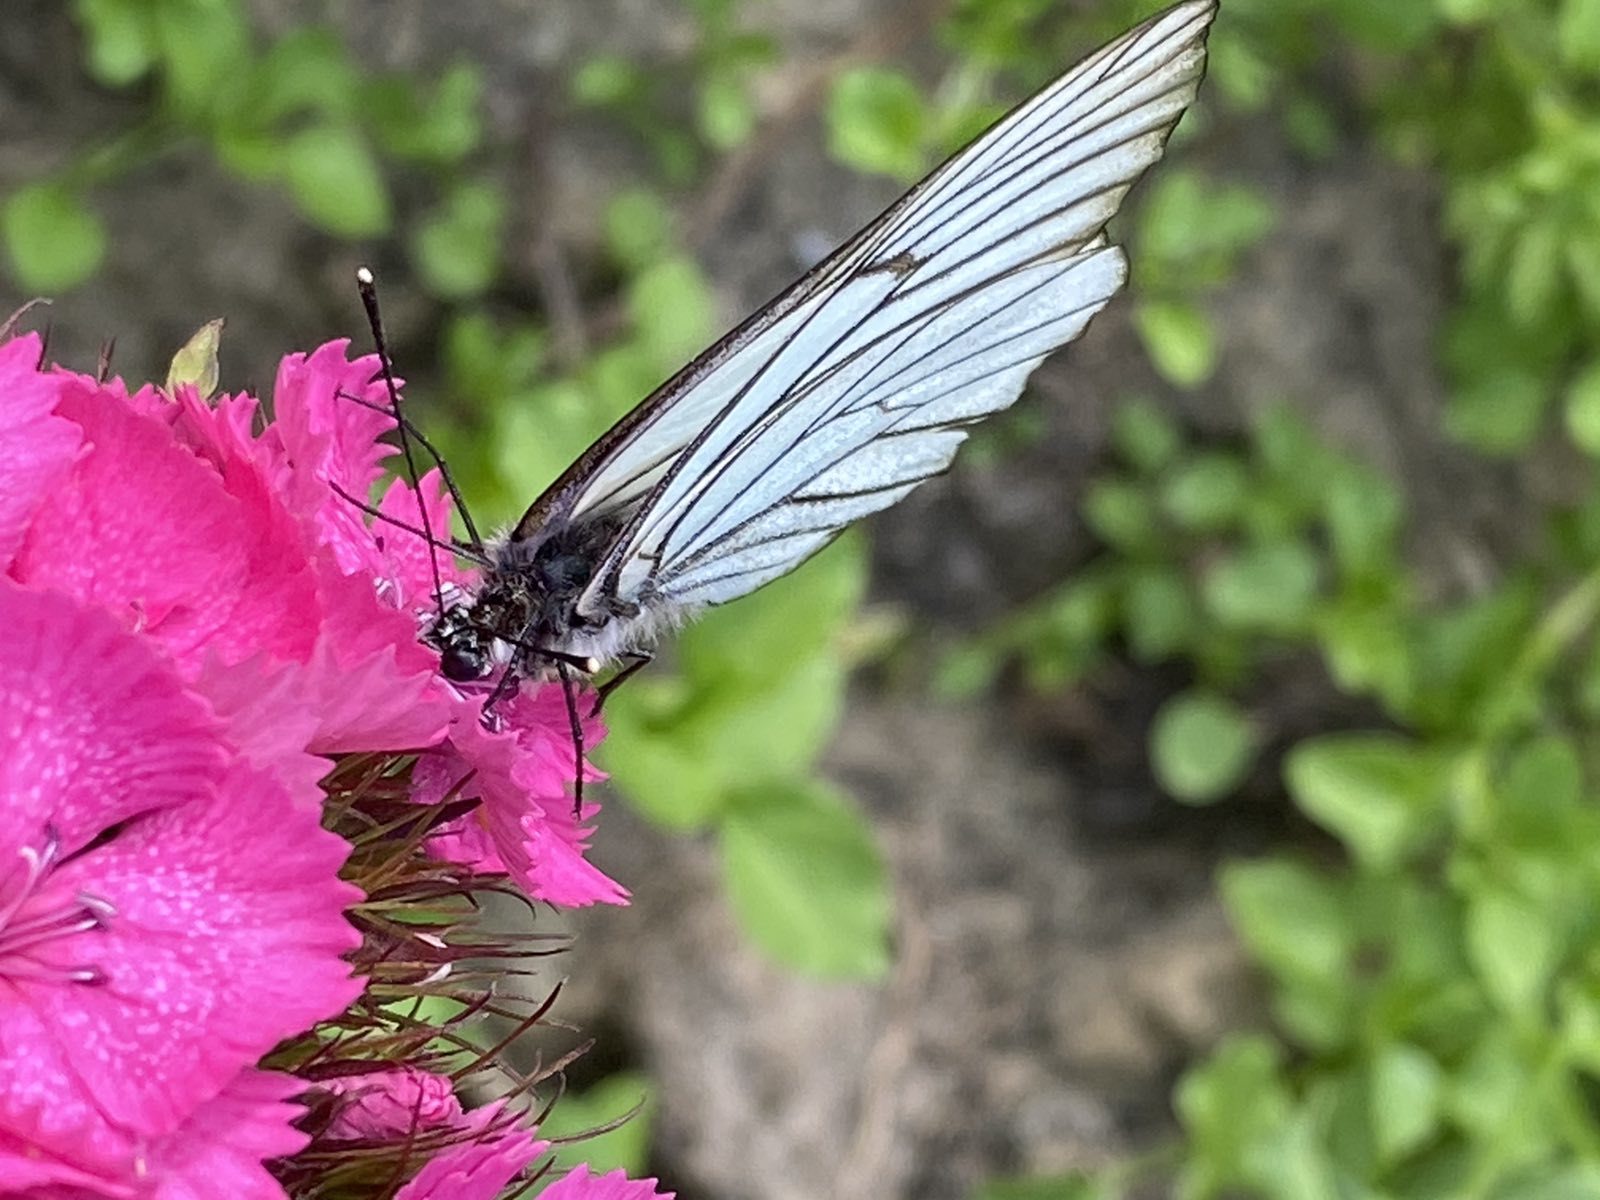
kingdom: Animalia
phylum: Arthropoda
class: Insecta
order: Lepidoptera
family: Pieridae
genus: Aporia
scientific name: Aporia crataegi
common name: Black-veined white
